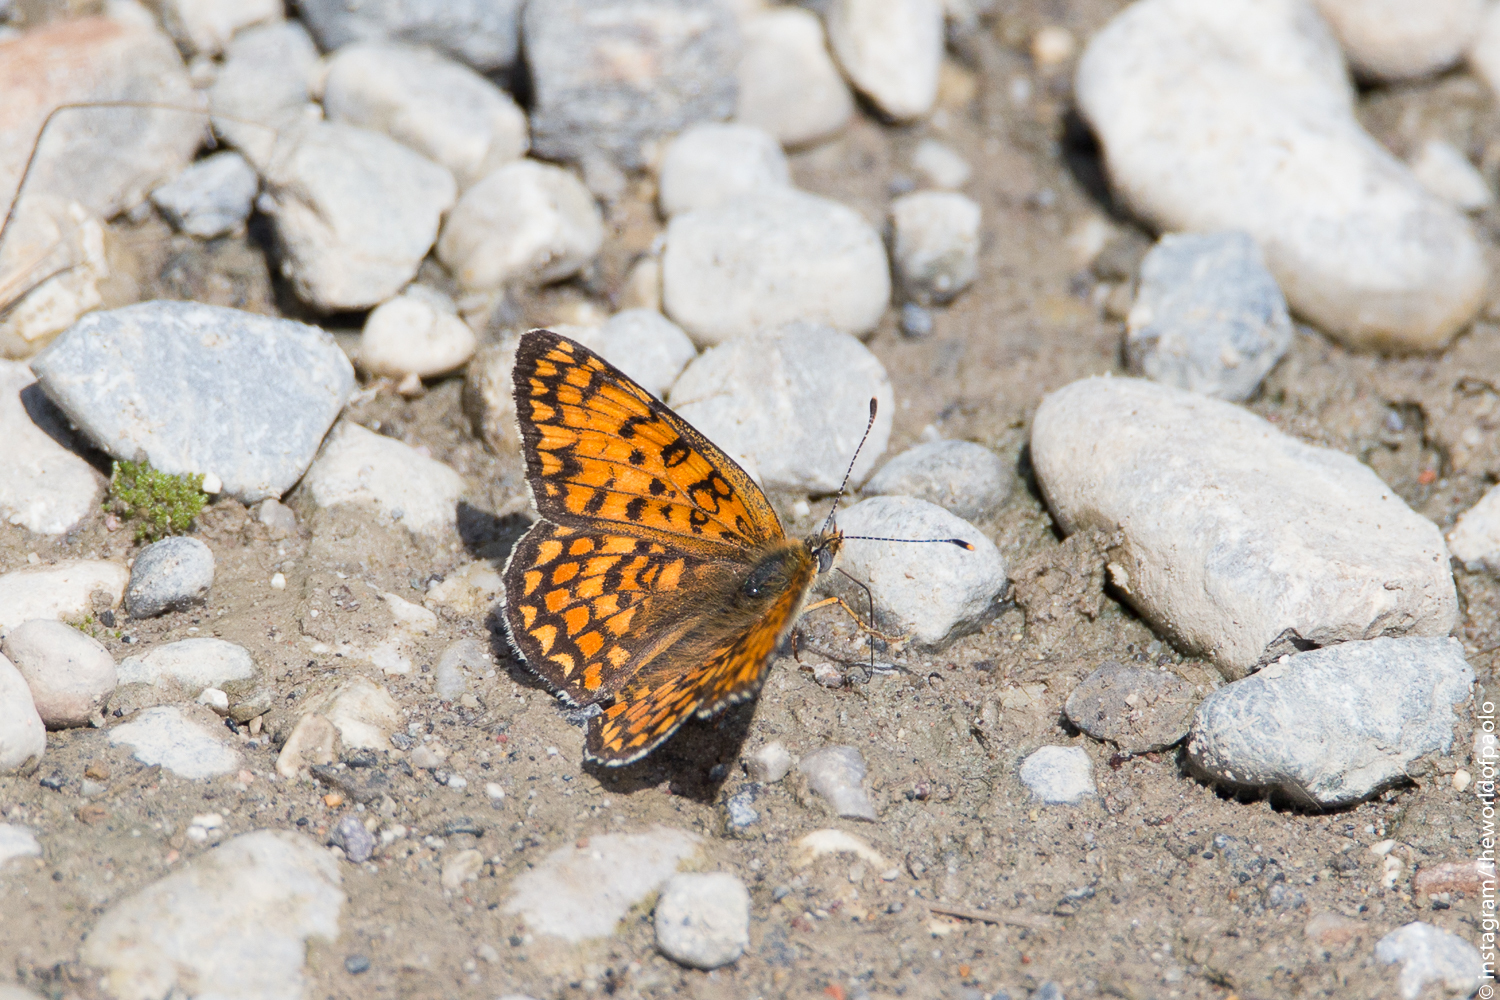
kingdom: Animalia
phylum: Arthropoda
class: Insecta
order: Lepidoptera
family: Nymphalidae
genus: Melitaea
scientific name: Melitaea phoebe
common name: Knapweed fritillary
